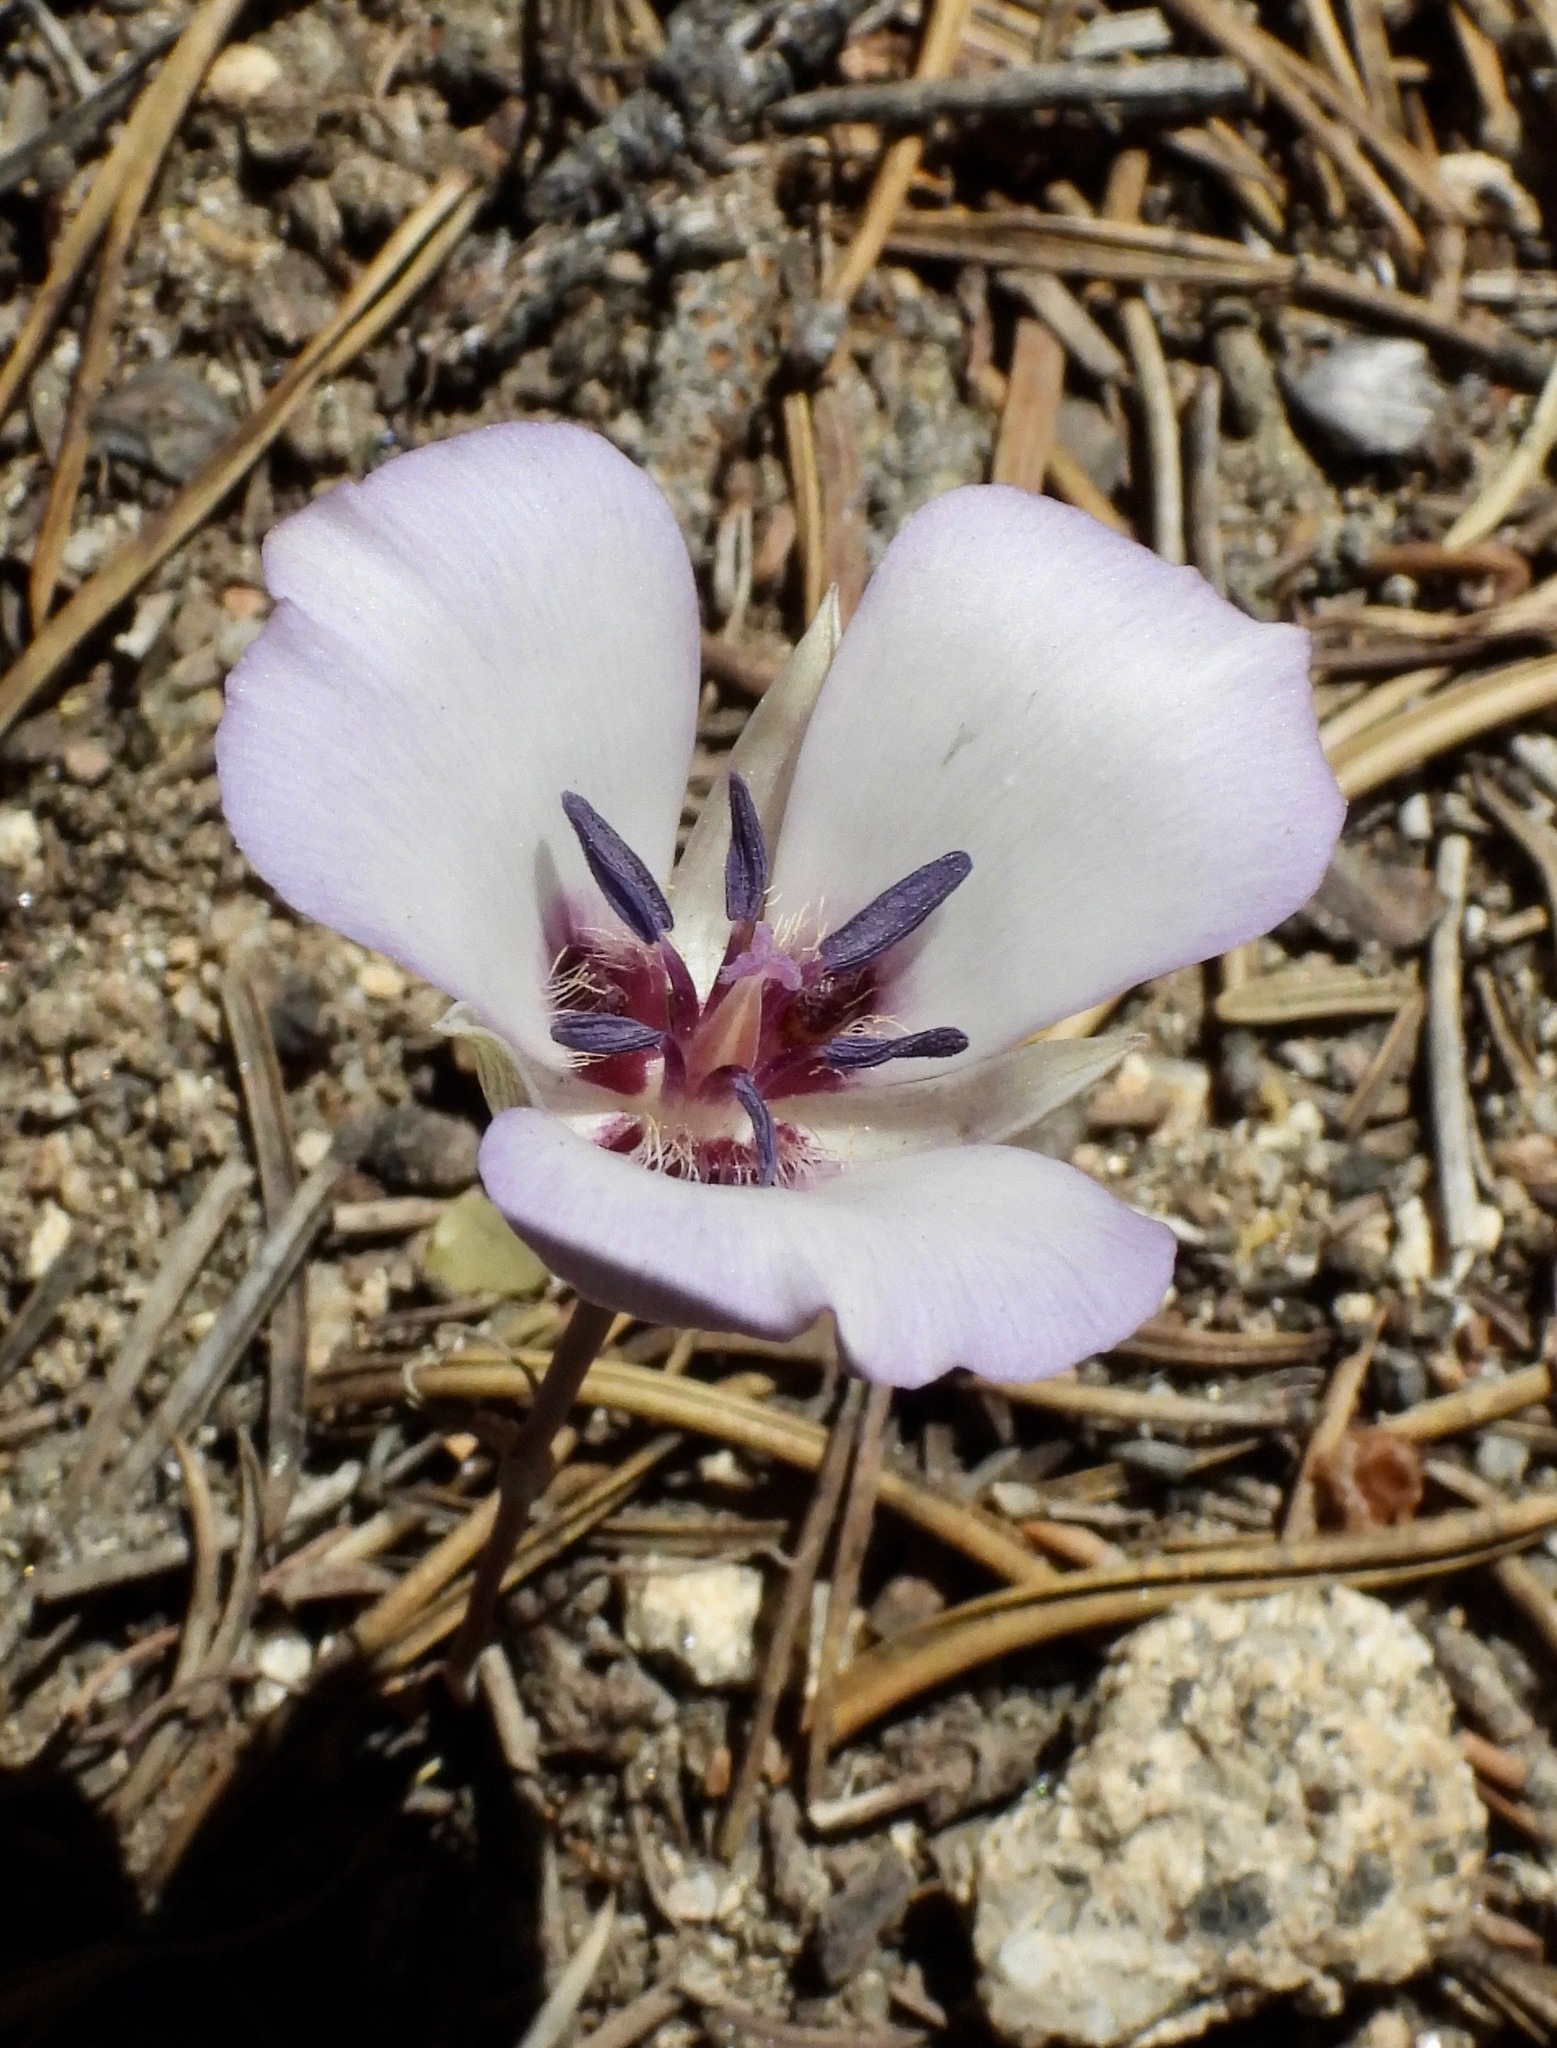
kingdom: Plantae
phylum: Tracheophyta
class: Liliopsida
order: Liliales
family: Liliaceae
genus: Calochortus
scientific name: Calochortus invenustus
